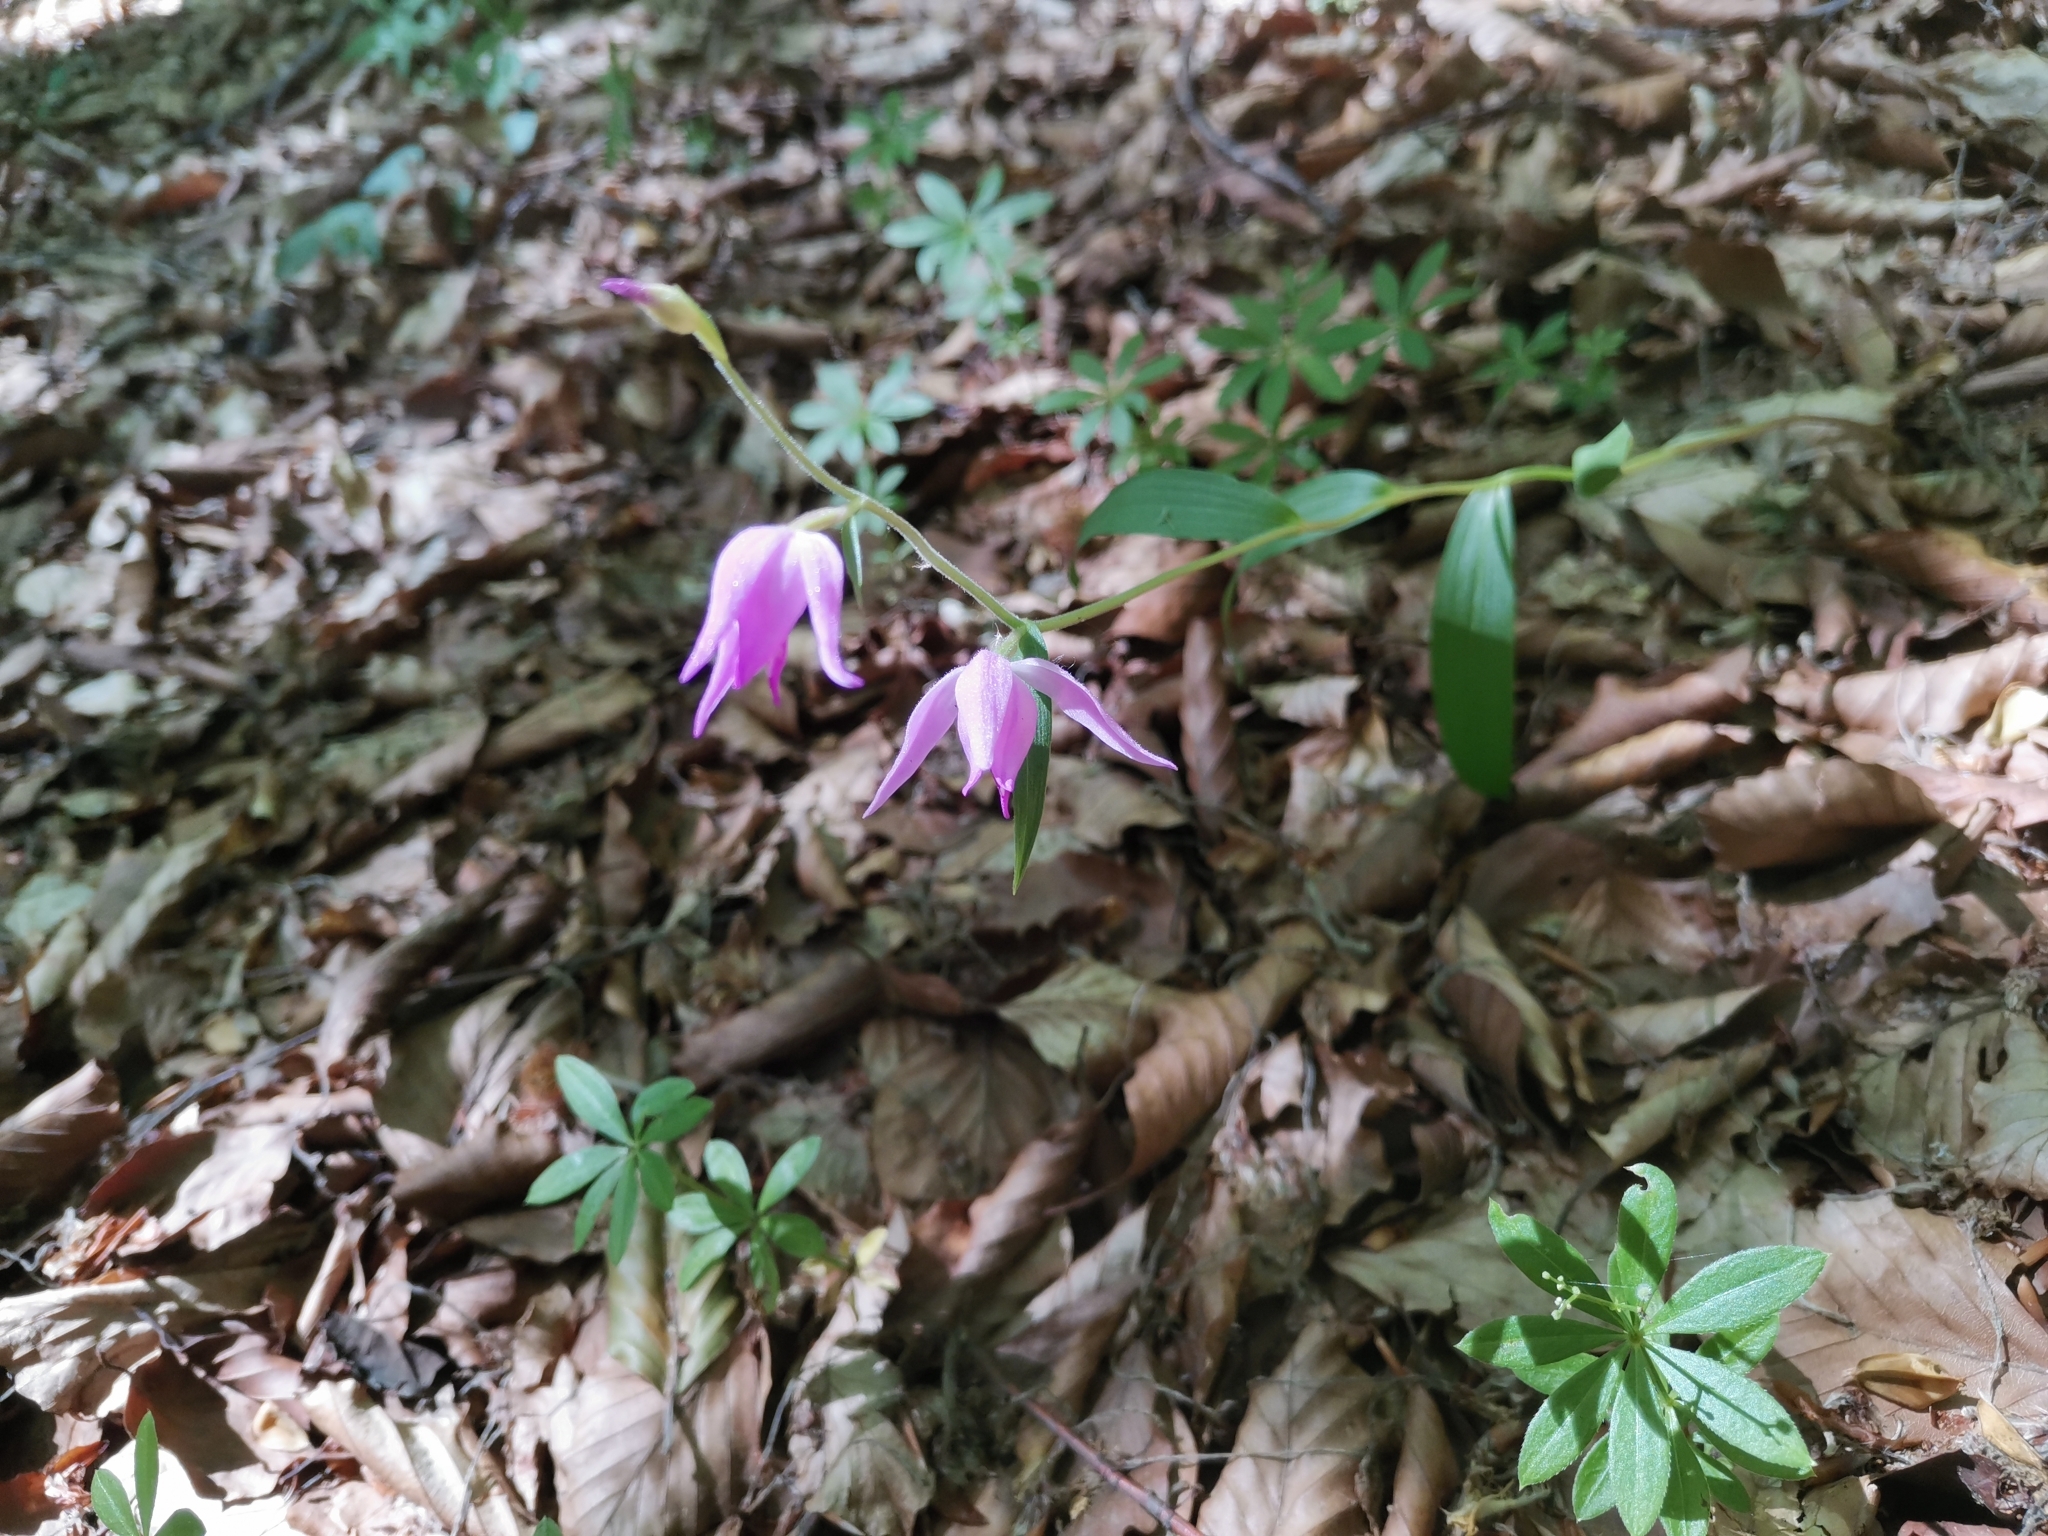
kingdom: Plantae
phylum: Tracheophyta
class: Liliopsida
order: Asparagales
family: Orchidaceae
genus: Cephalanthera
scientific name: Cephalanthera rubra
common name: Red helleborine
